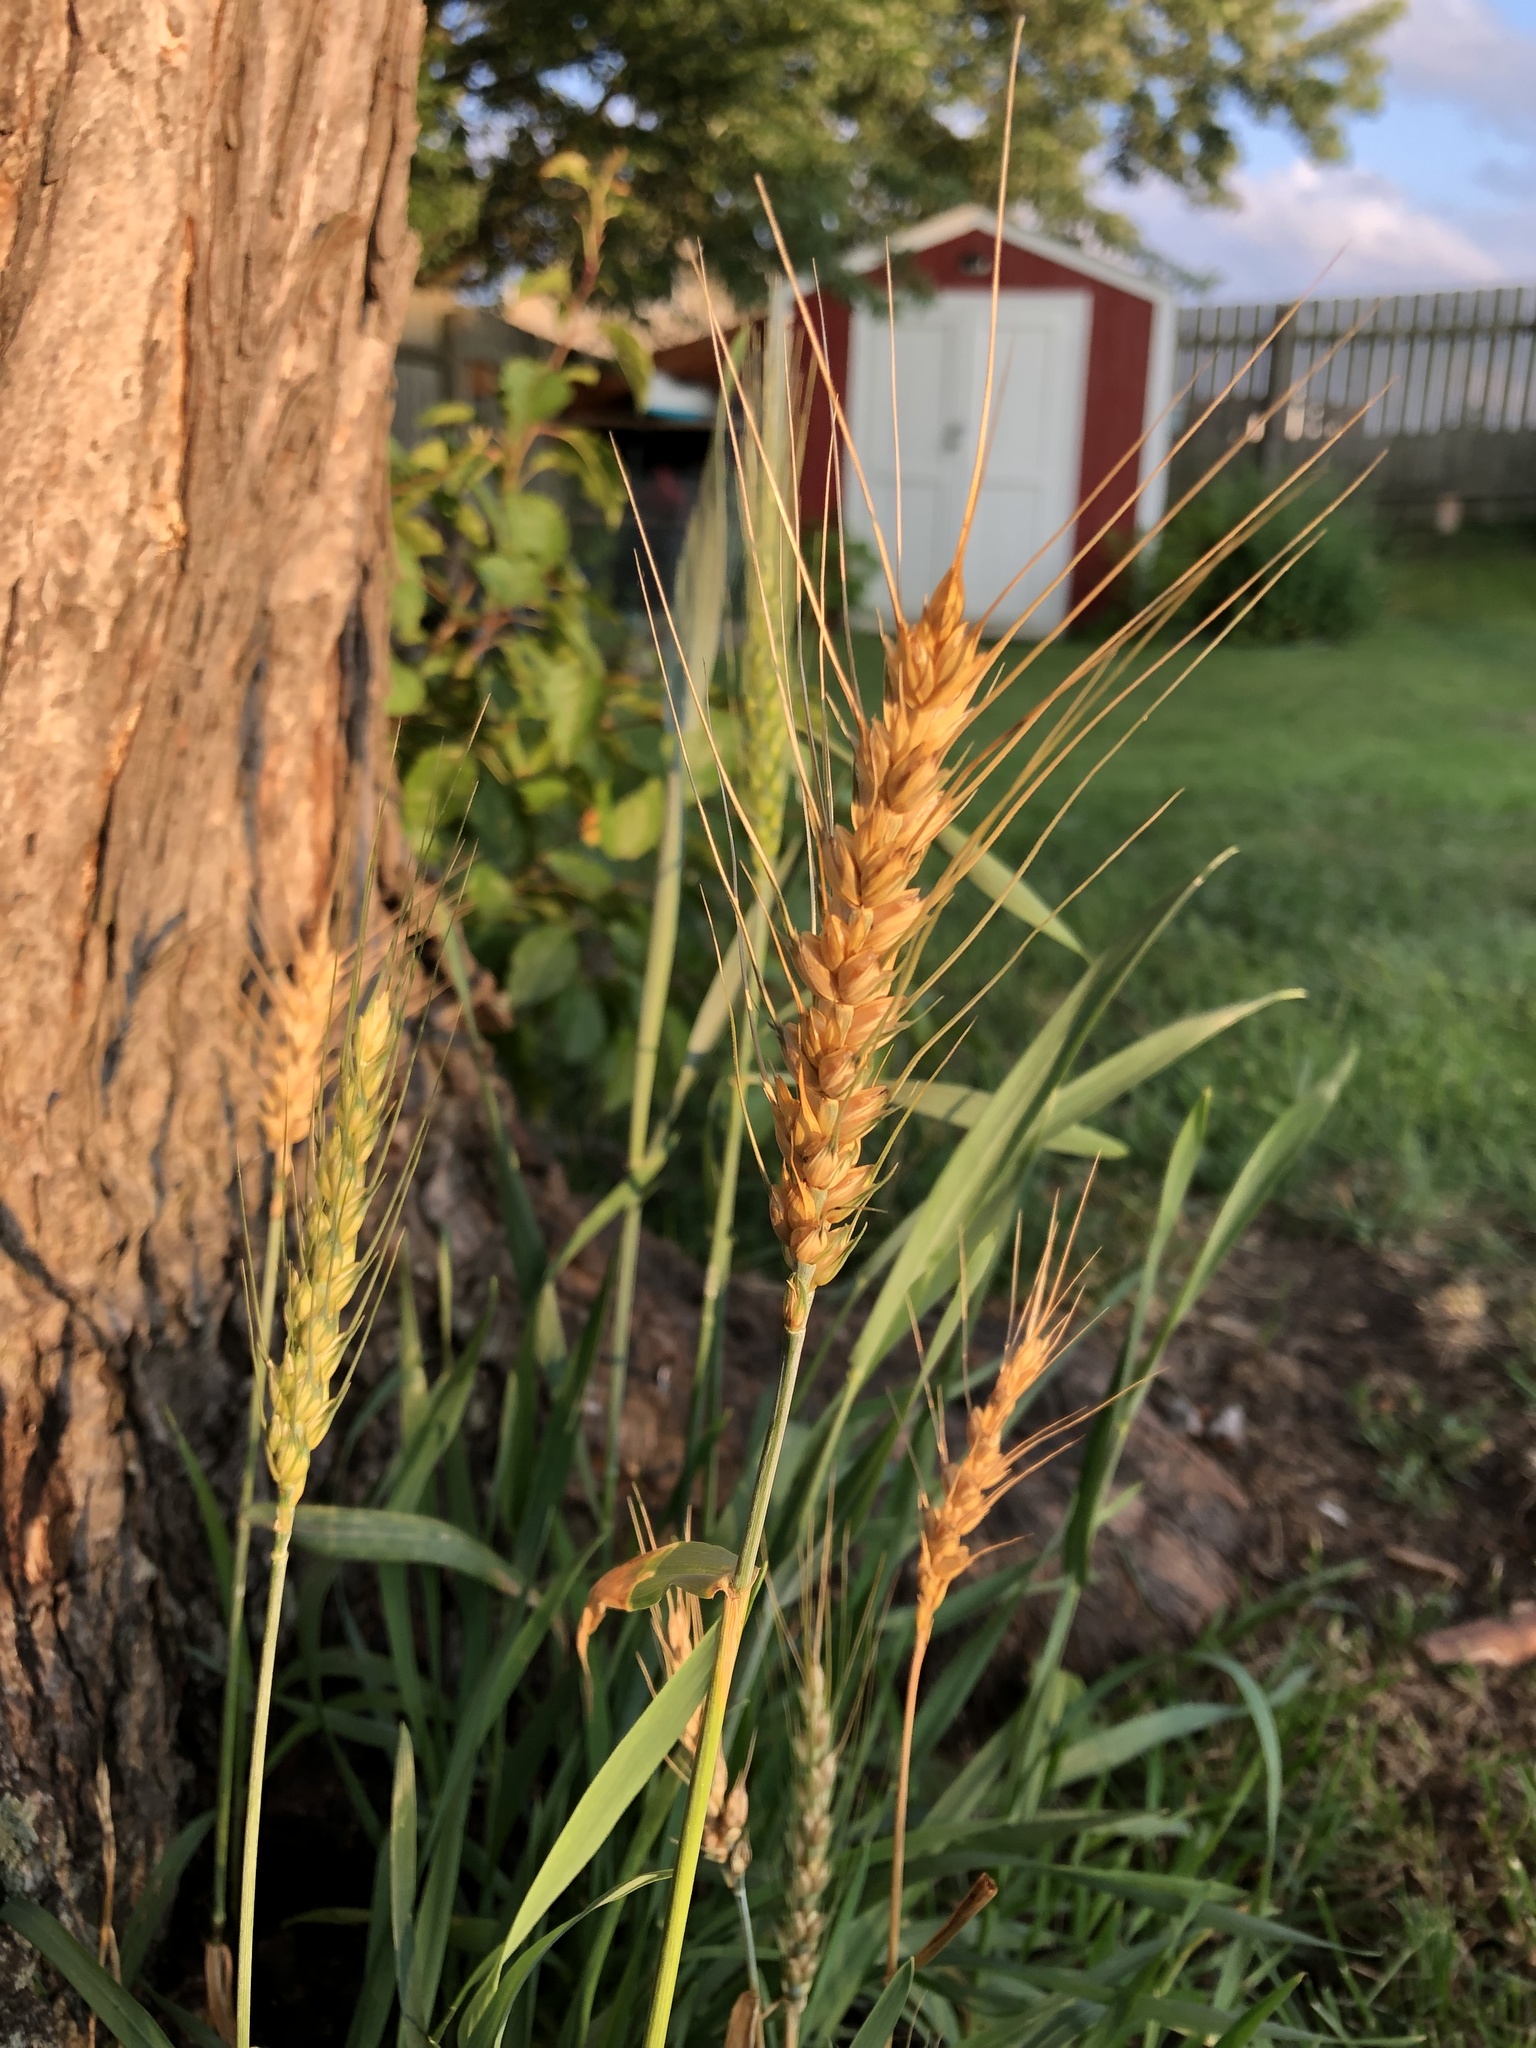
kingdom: Plantae
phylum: Tracheophyta
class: Liliopsida
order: Poales
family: Poaceae
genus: Triticum
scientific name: Triticum aestivum
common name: Common wheat
